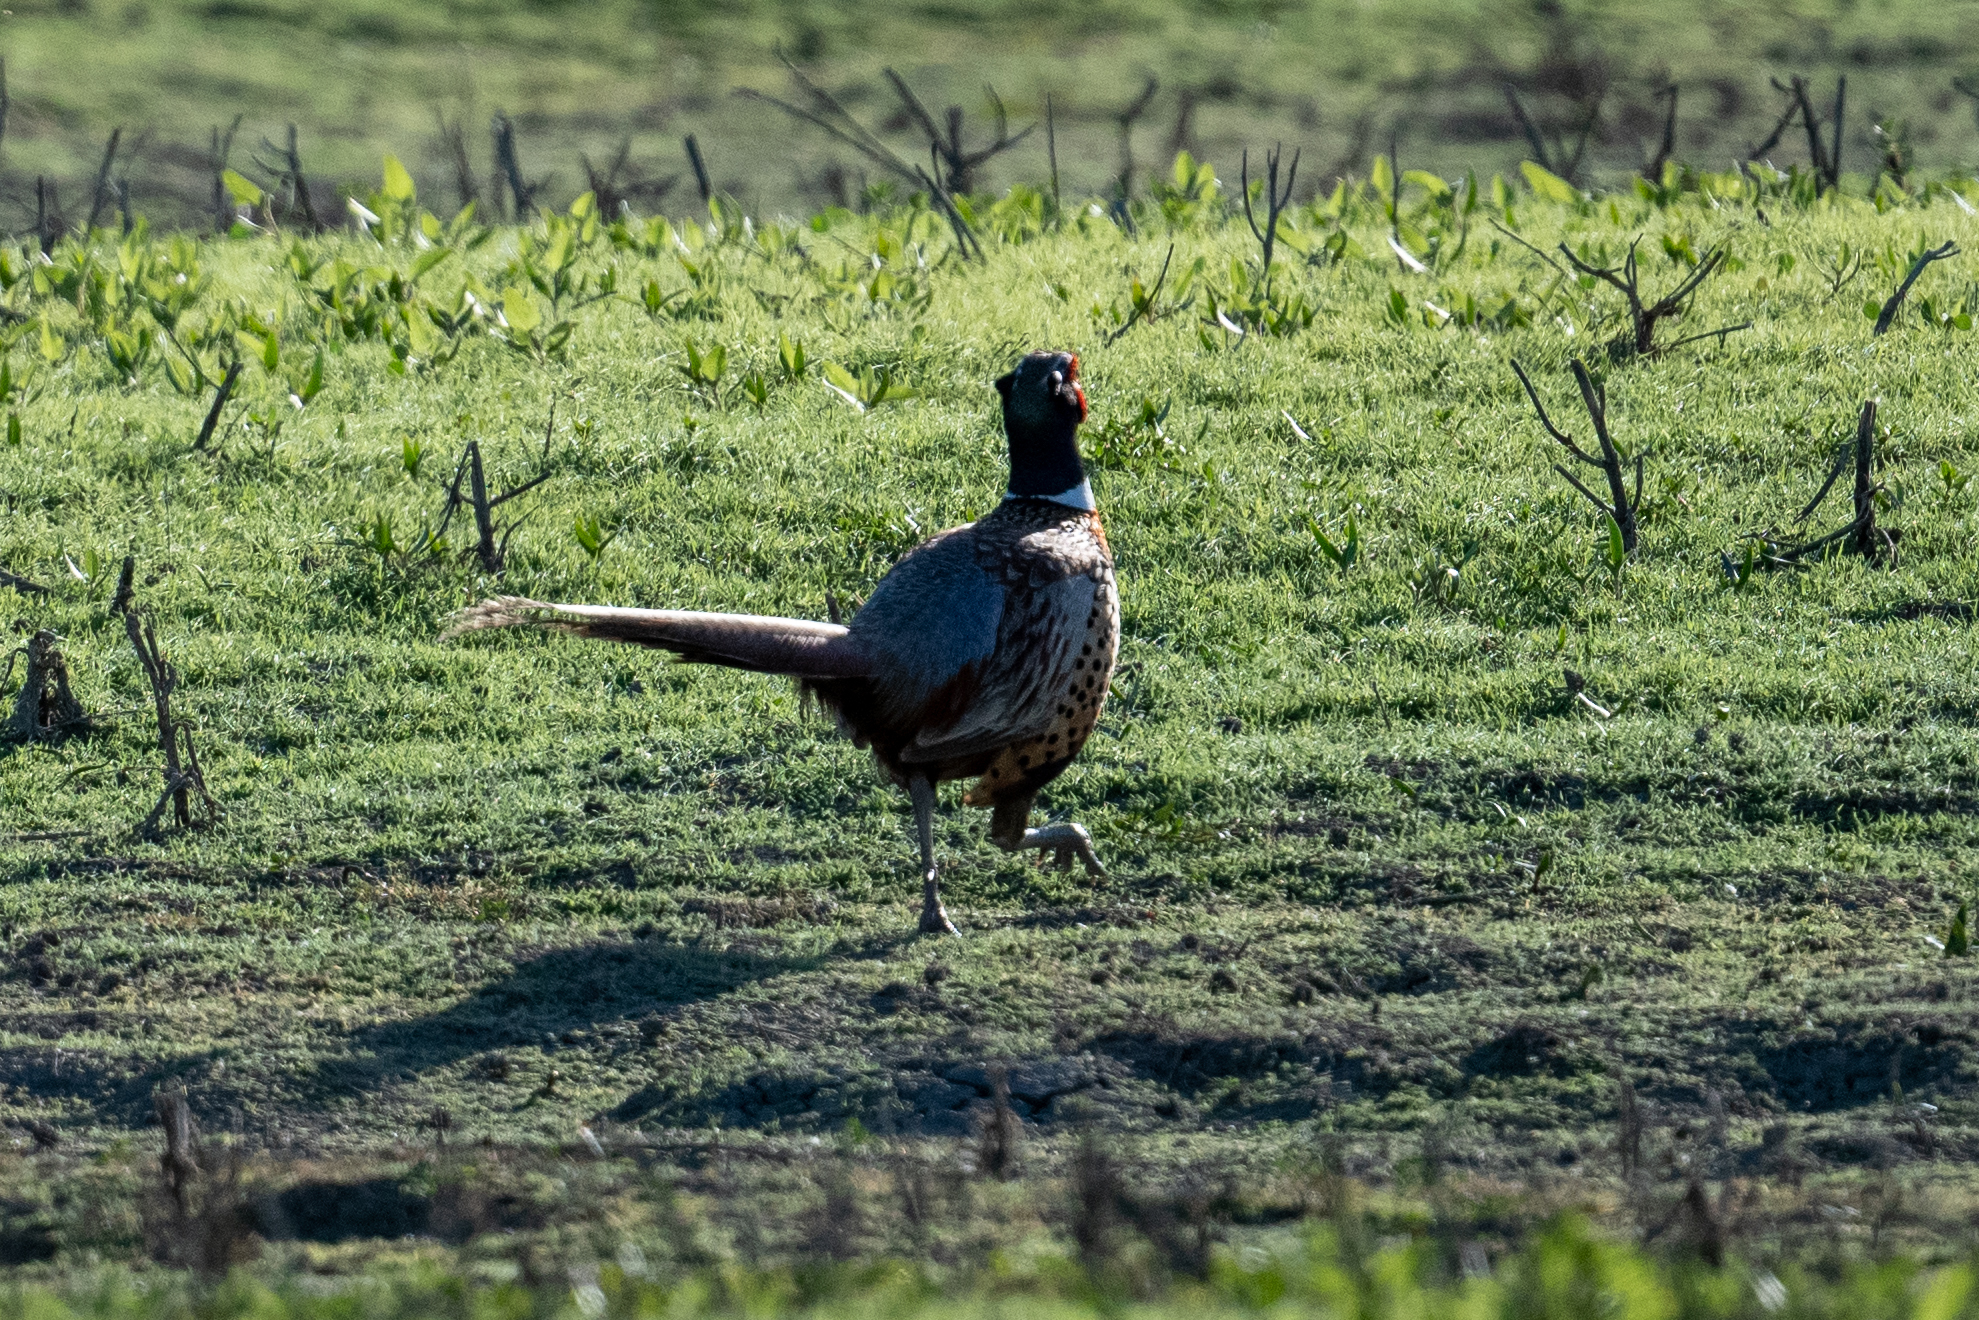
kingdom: Animalia
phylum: Chordata
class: Aves
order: Galliformes
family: Phasianidae
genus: Phasianus
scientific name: Phasianus colchicus
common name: Common pheasant
